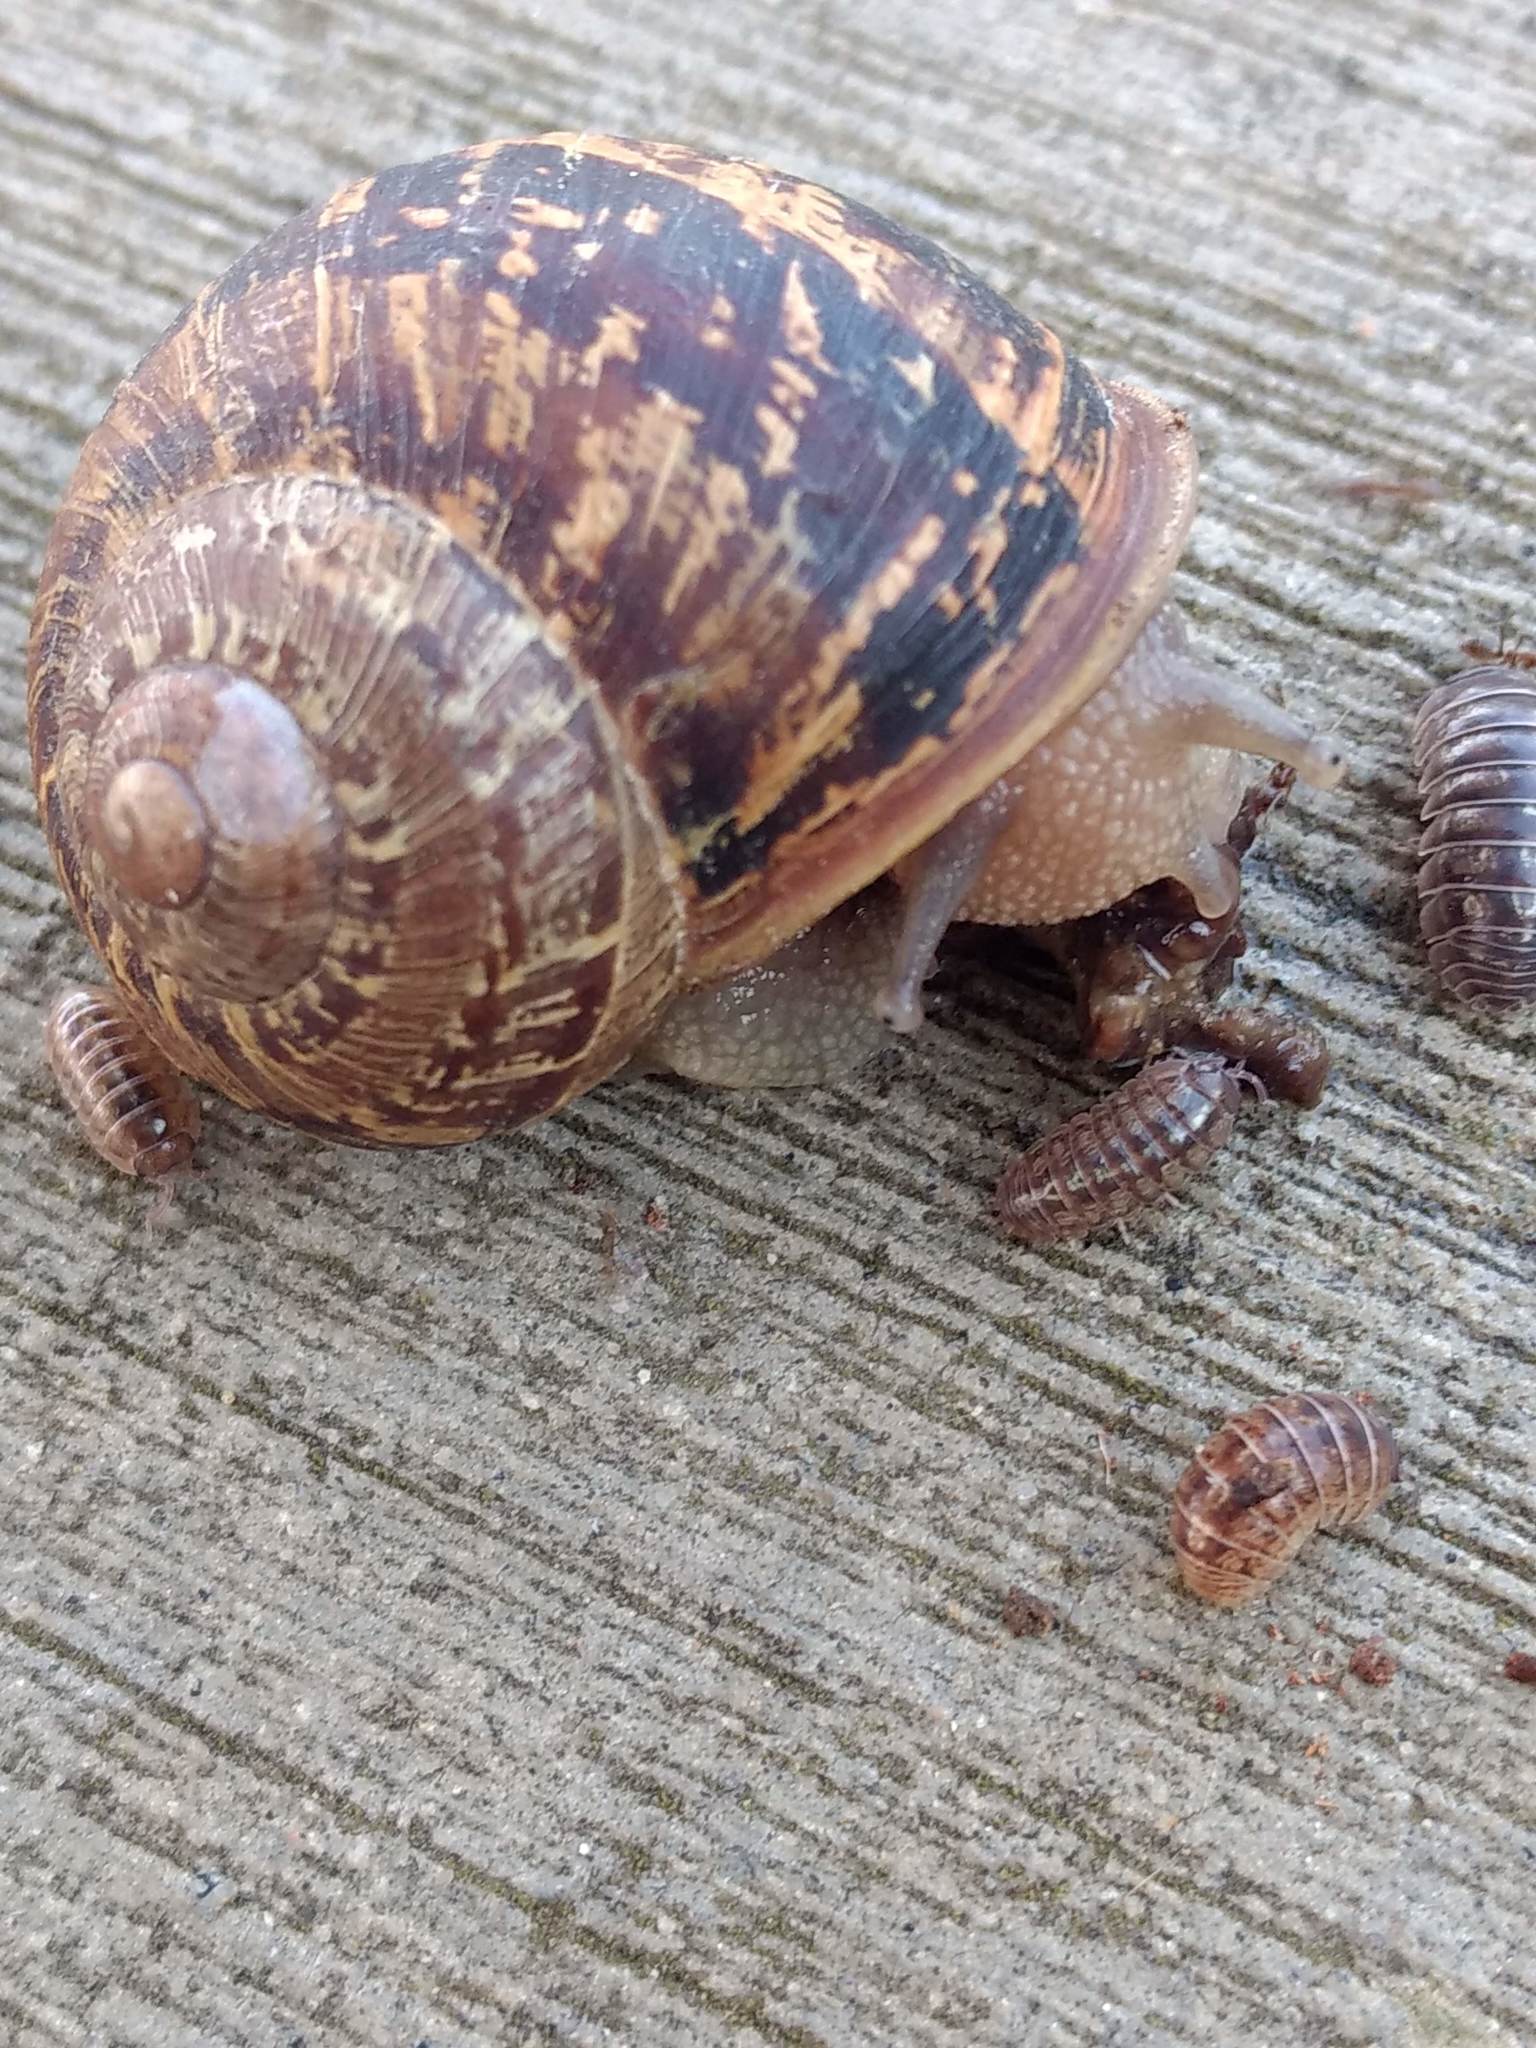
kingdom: Animalia
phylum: Arthropoda
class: Malacostraca
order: Isopoda
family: Armadillidiidae
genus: Armadillidium
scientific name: Armadillidium vulgare
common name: Common pill woodlouse
